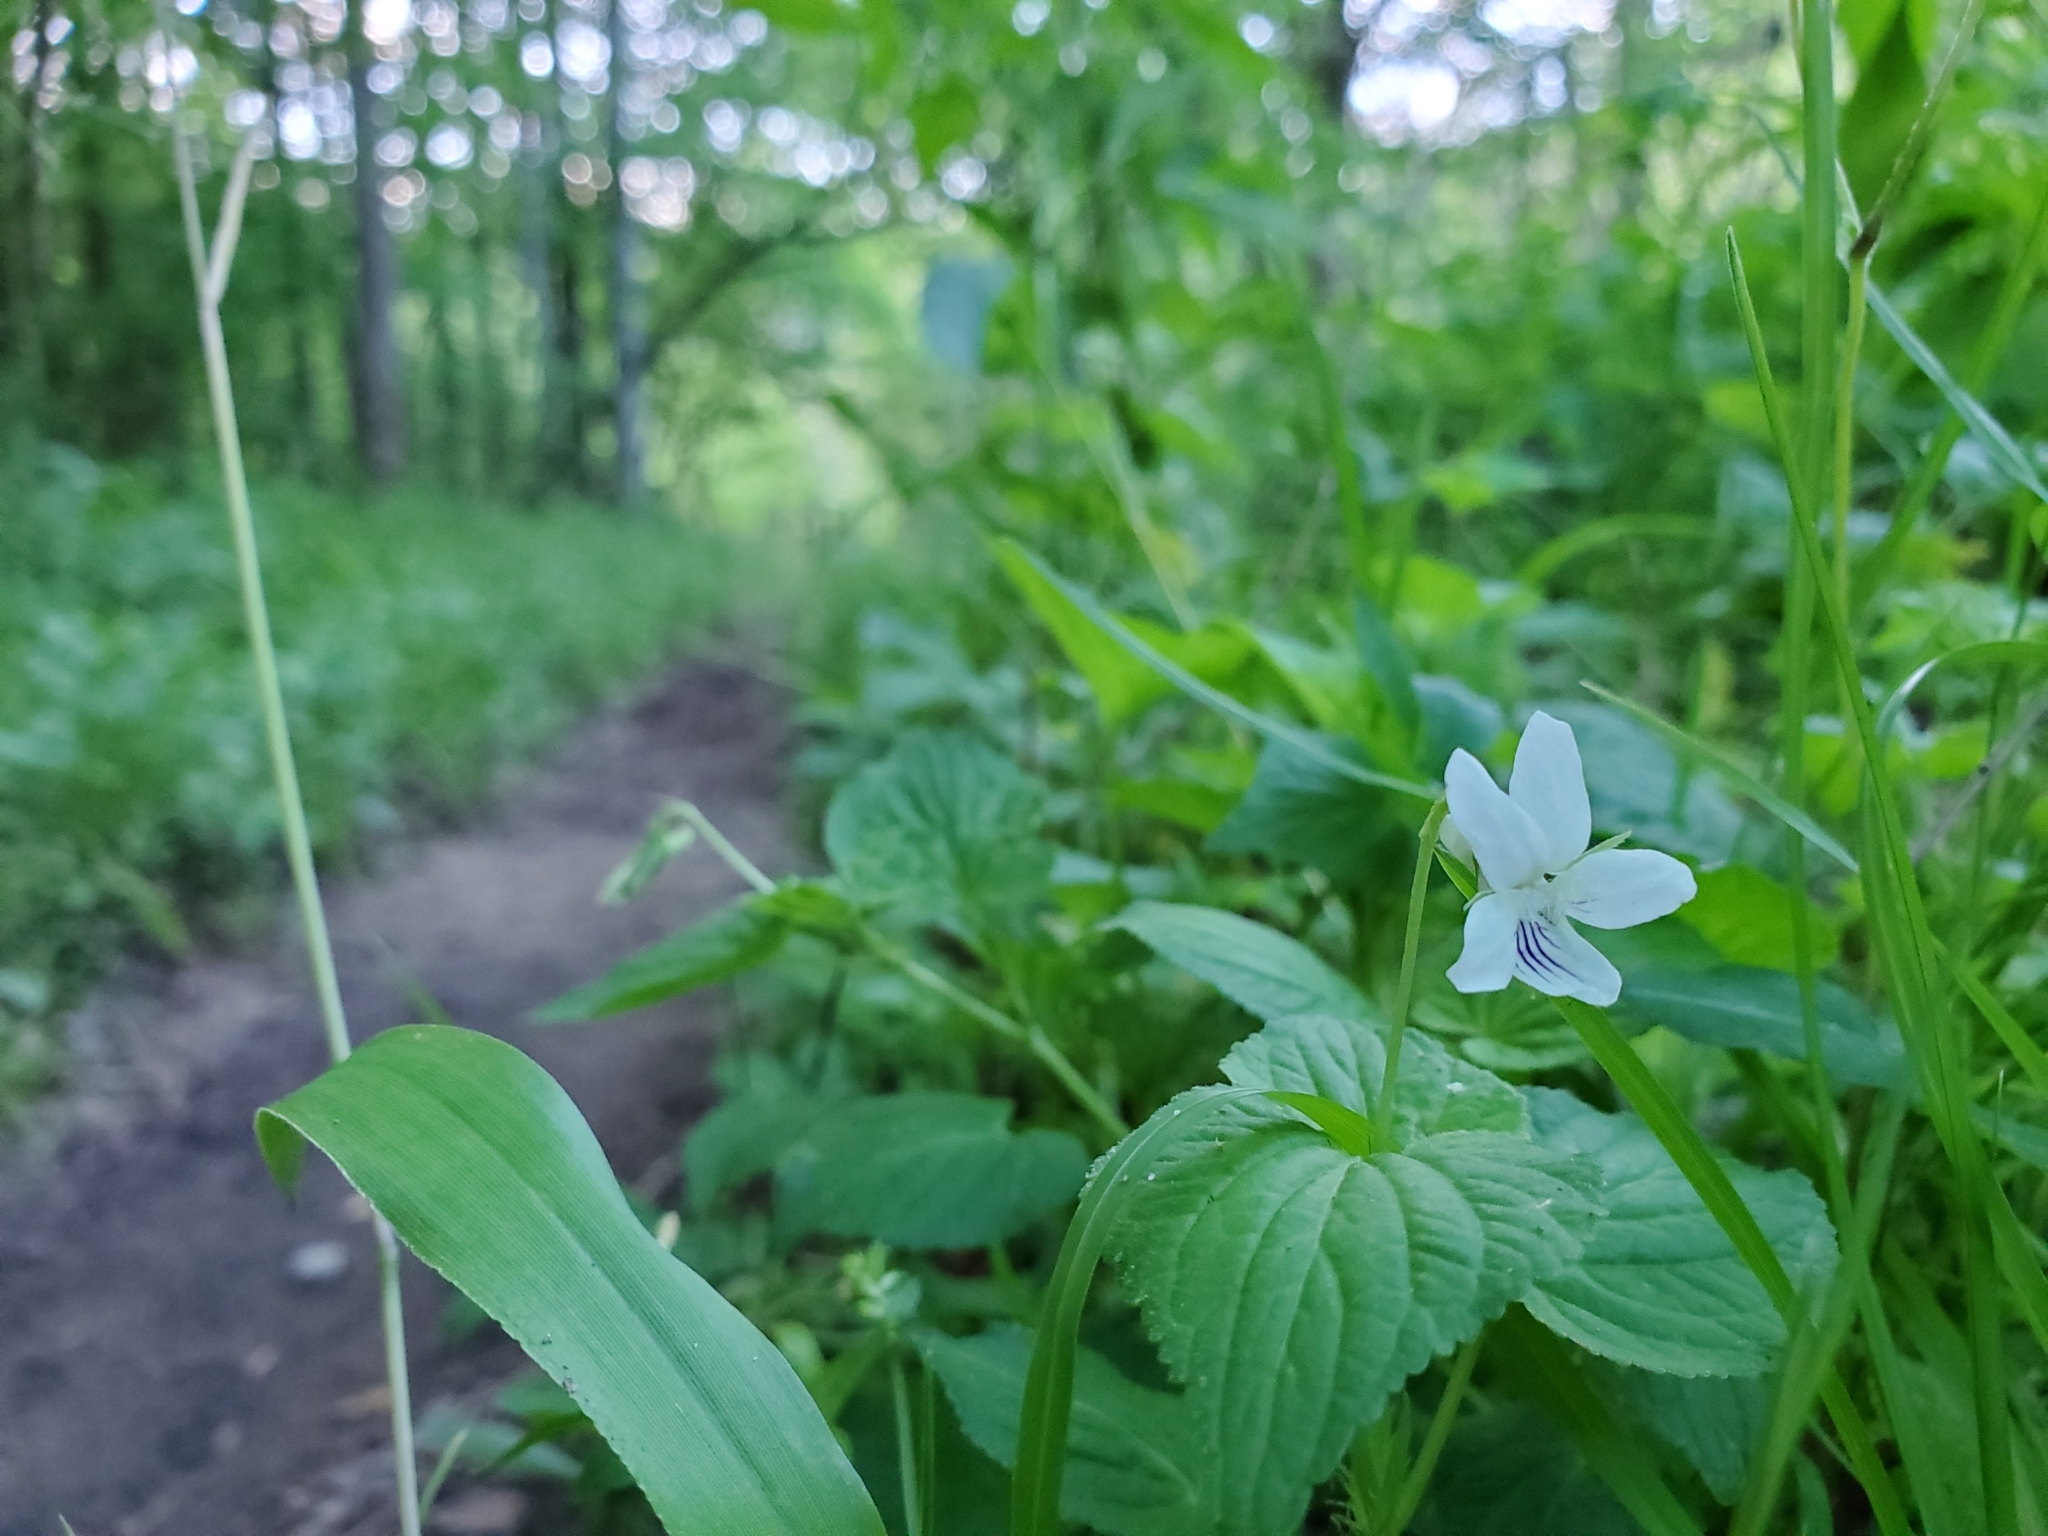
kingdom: Plantae
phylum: Tracheophyta
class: Magnoliopsida
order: Malpighiales
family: Violaceae
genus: Viola
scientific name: Viola striata
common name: Cream violet
